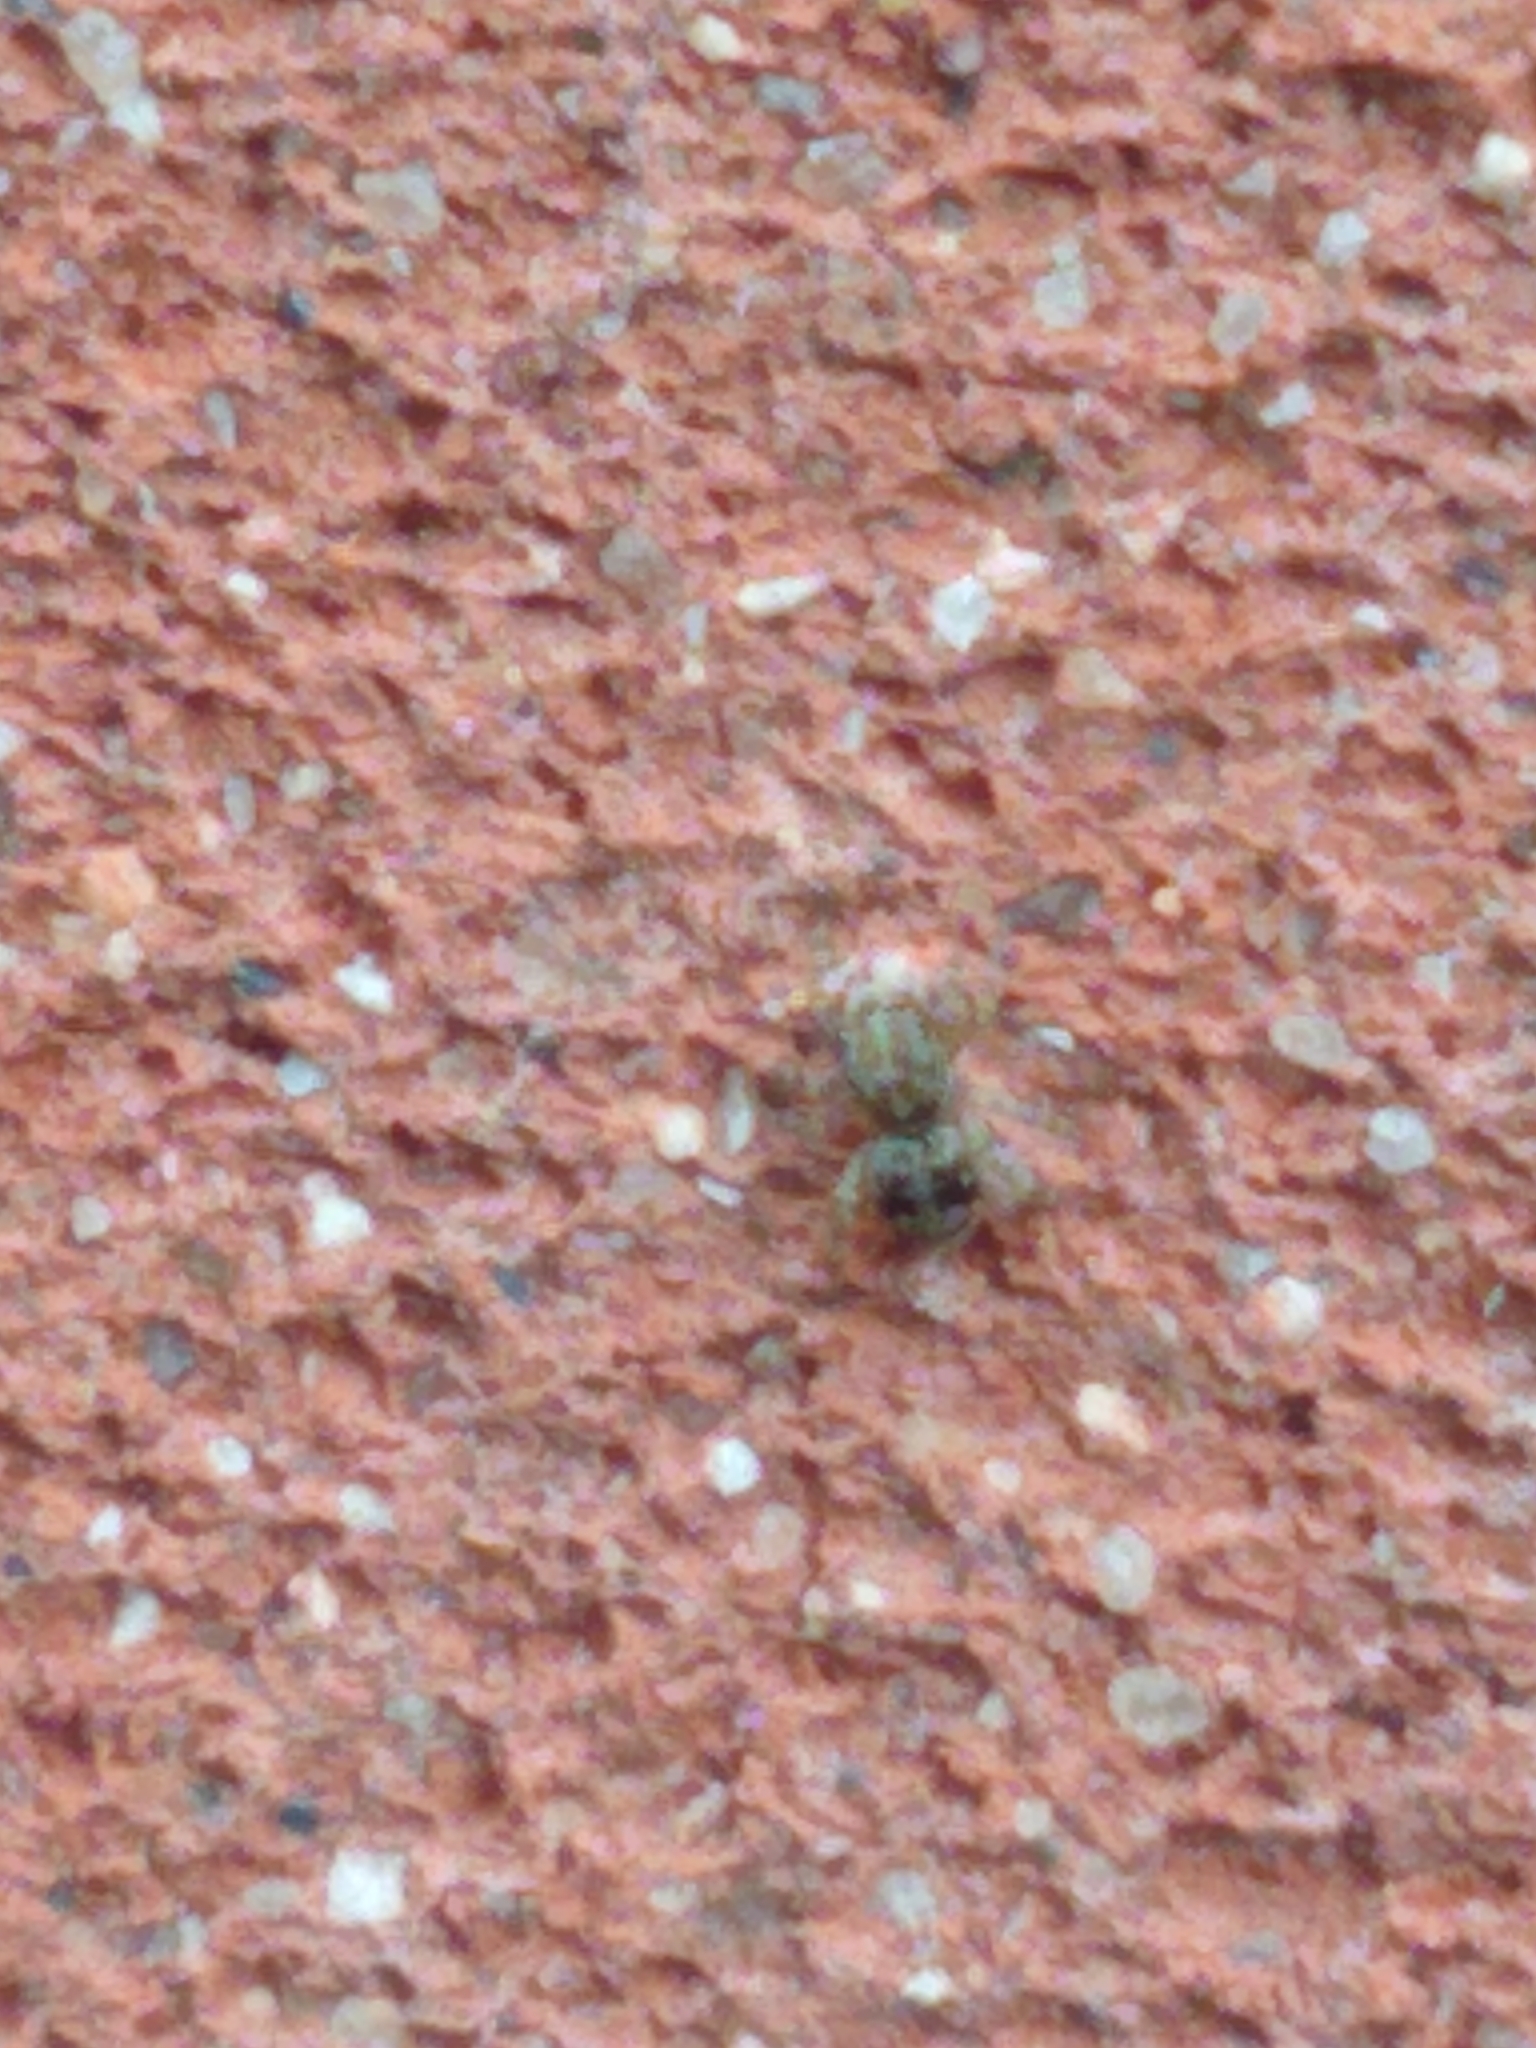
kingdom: Animalia
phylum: Arthropoda
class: Arachnida
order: Araneae
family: Salticidae
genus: Attulus
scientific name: Attulus fasciger
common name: Asiatic wall jumping spider
